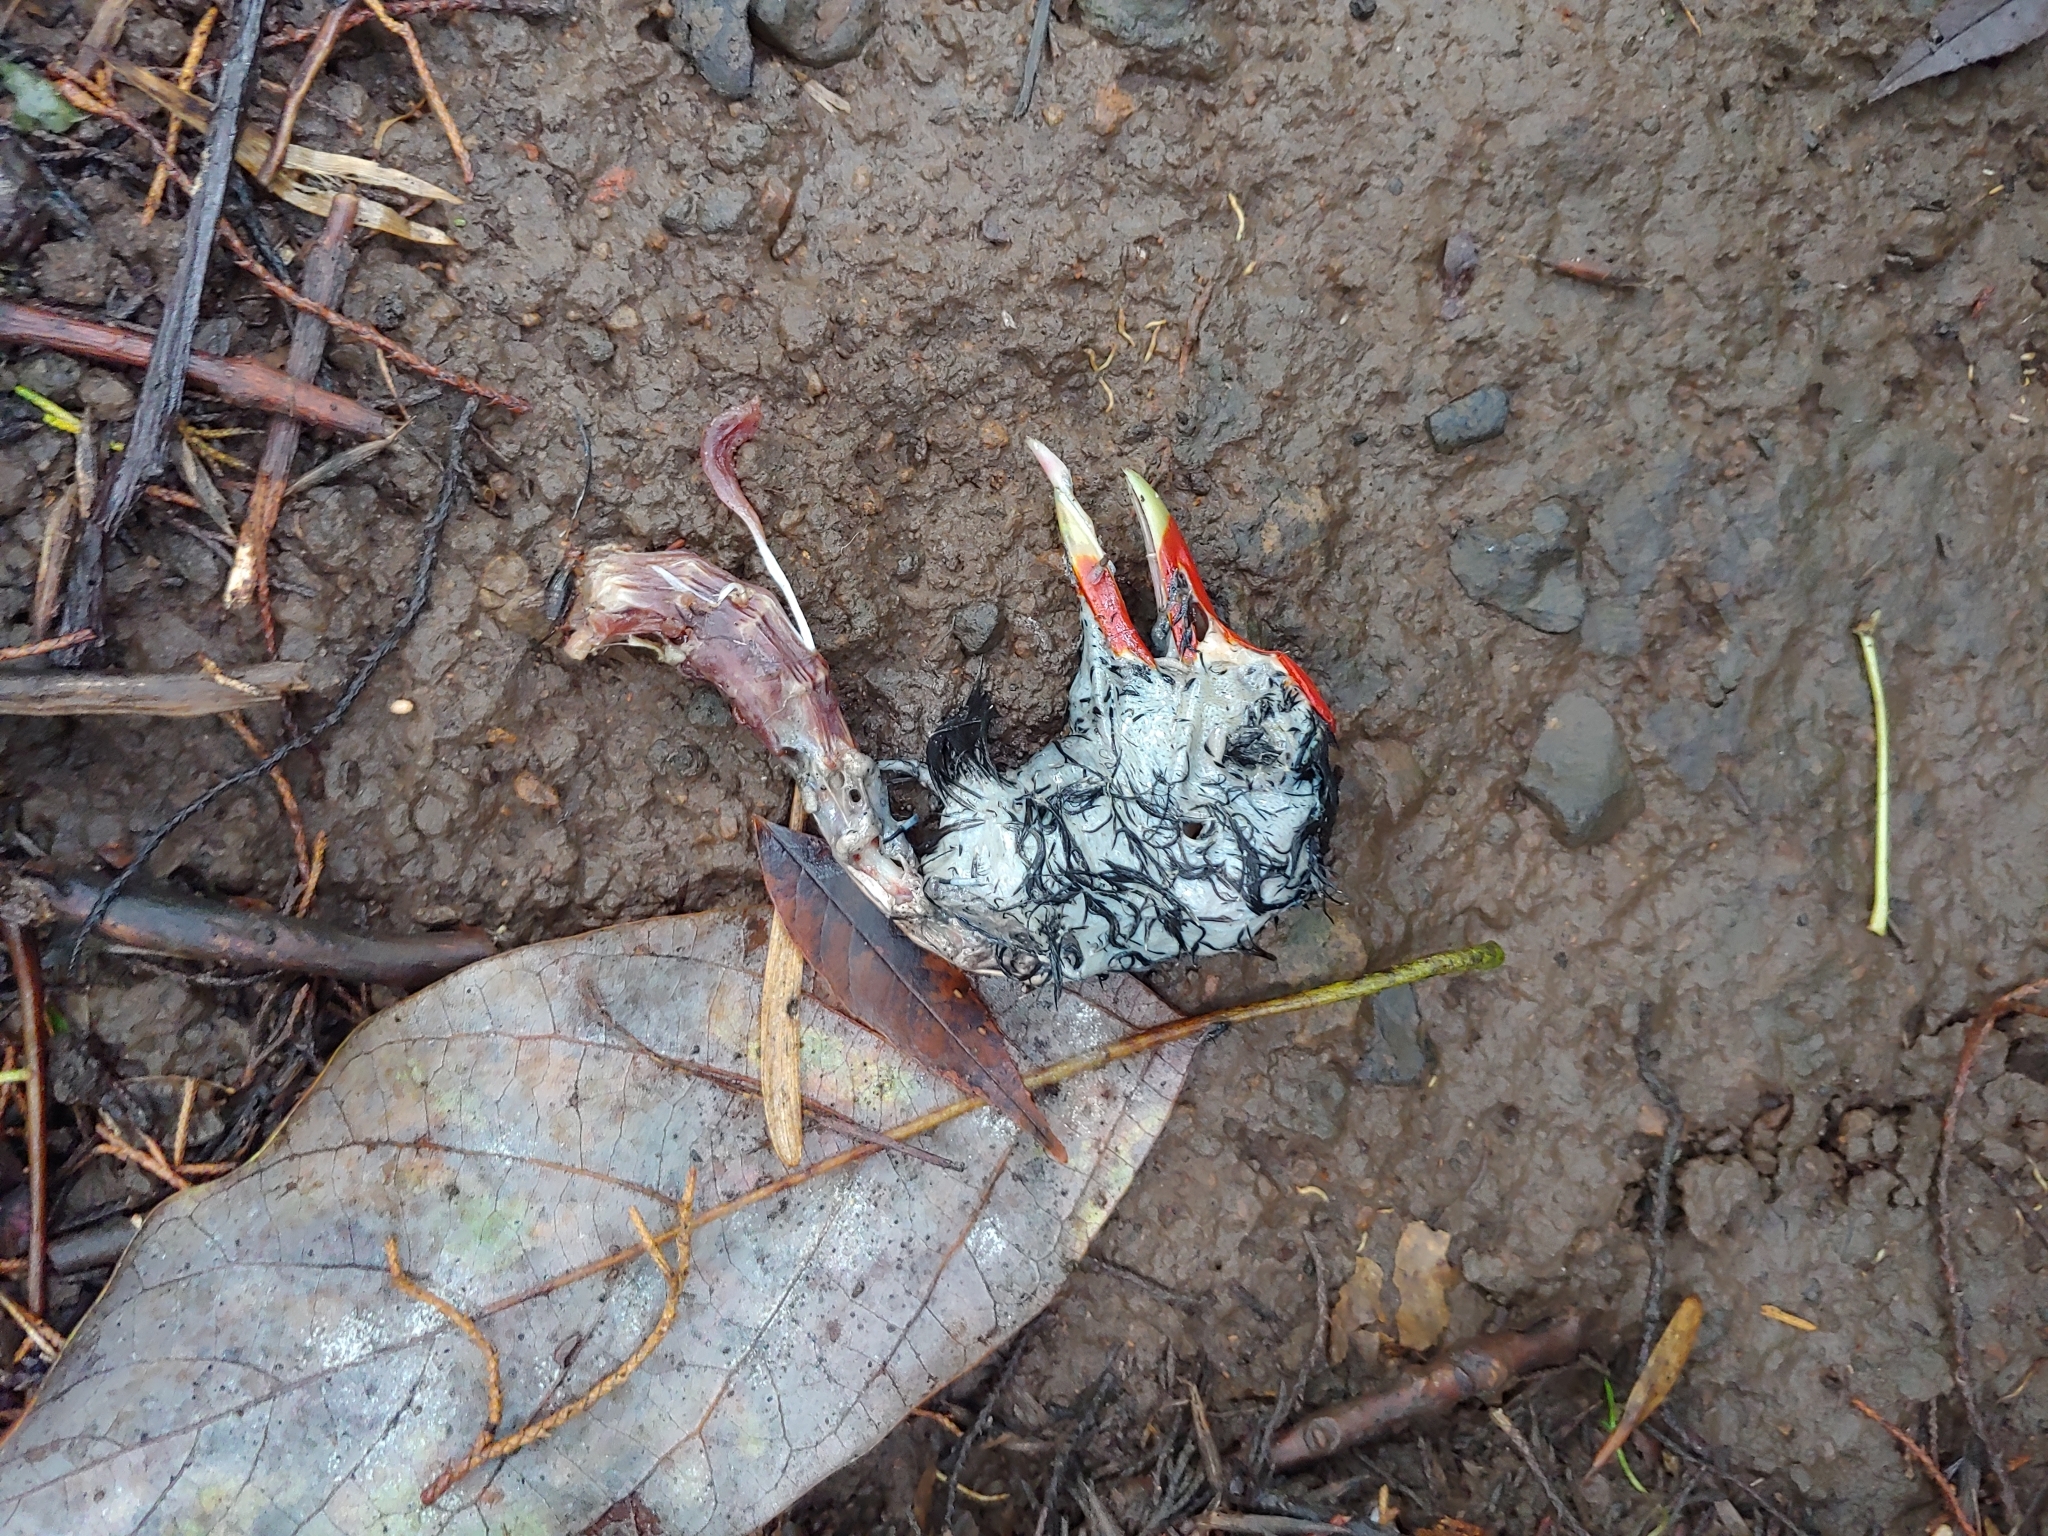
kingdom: Animalia
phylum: Chordata
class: Aves
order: Gruiformes
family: Rallidae
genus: Gallinula
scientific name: Gallinula chloropus
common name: Common moorhen
